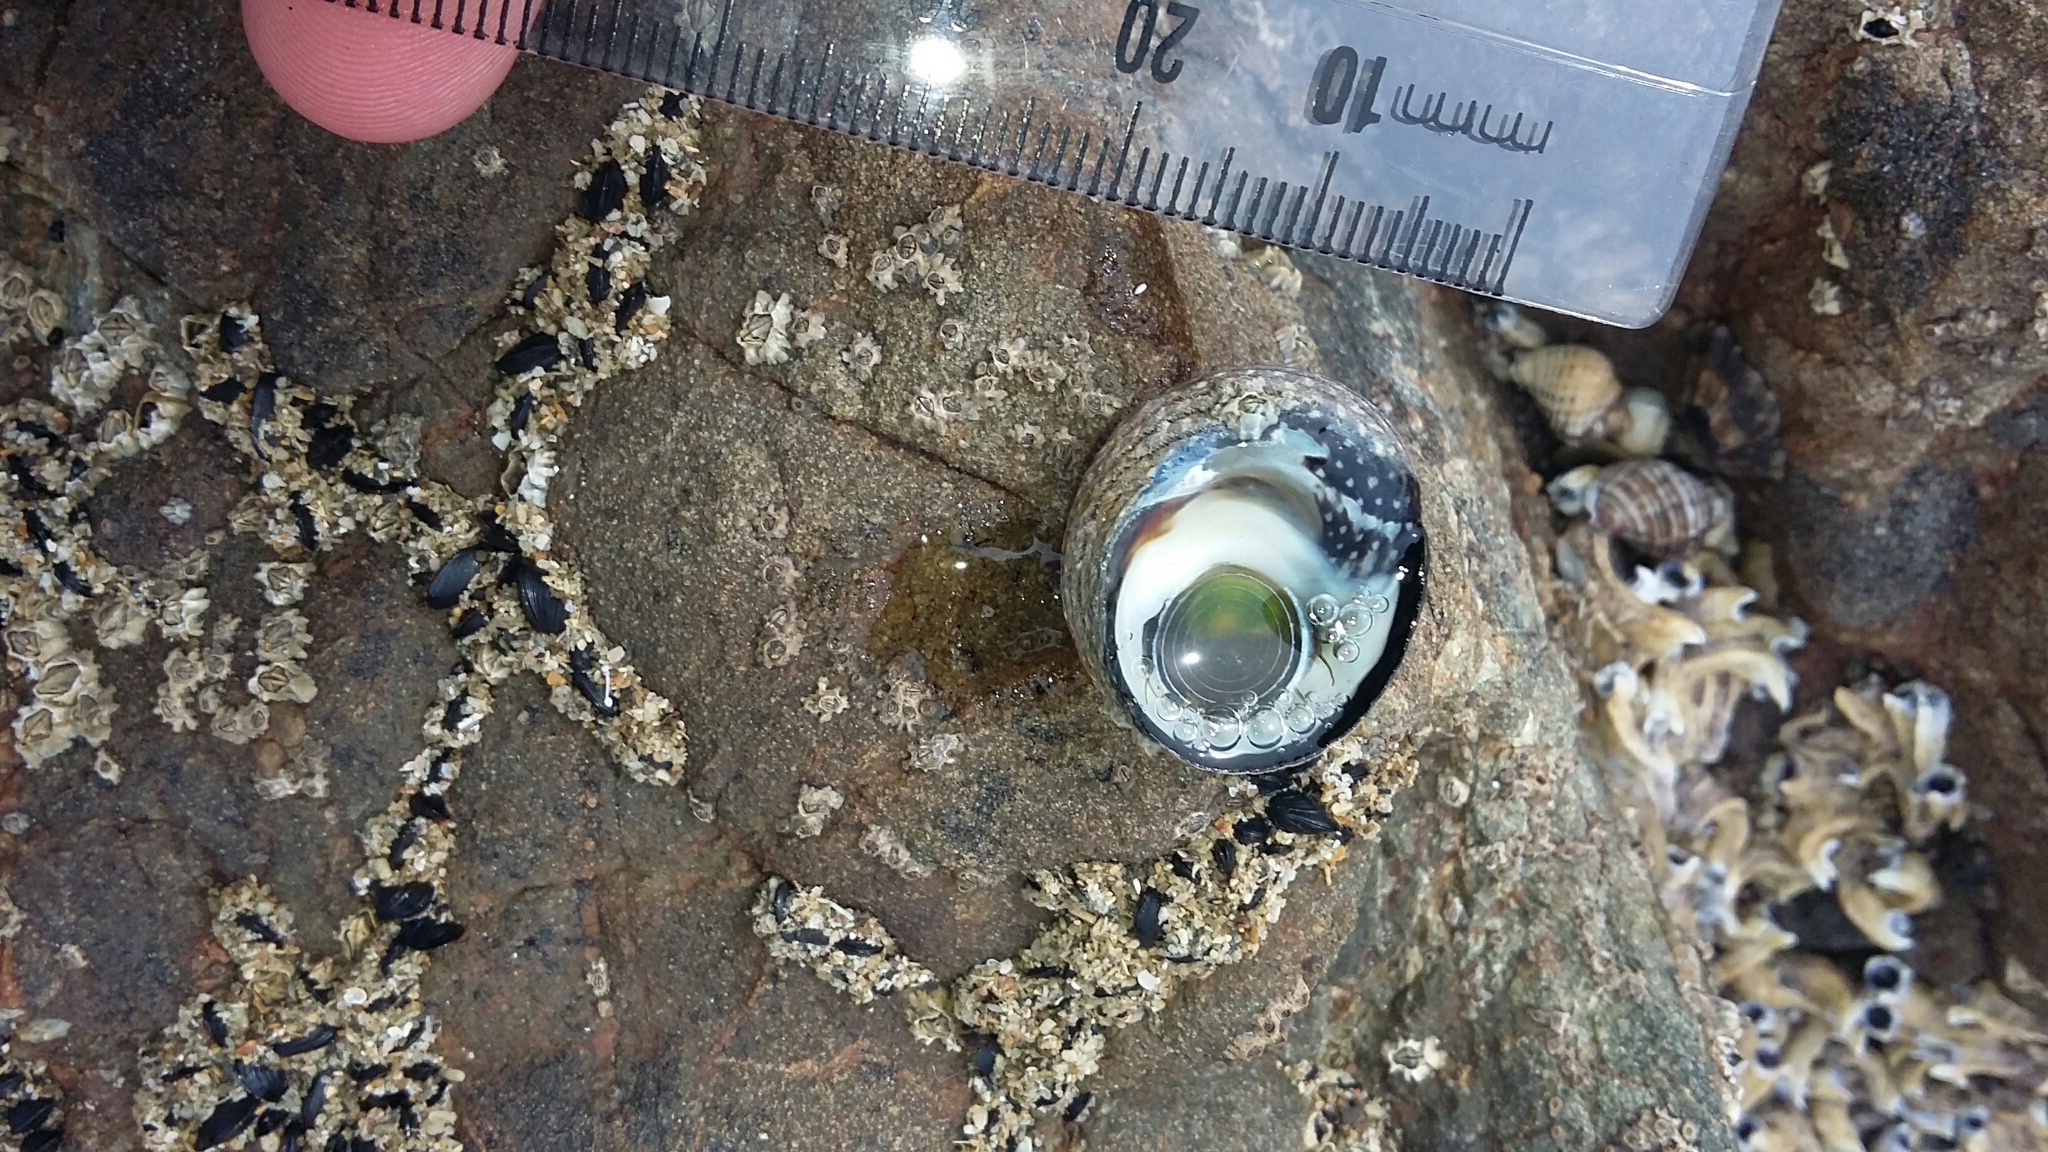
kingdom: Animalia
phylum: Mollusca
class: Gastropoda
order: Trochida
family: Trochidae
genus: Diloma
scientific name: Diloma aethiops
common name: Scorched monodont
